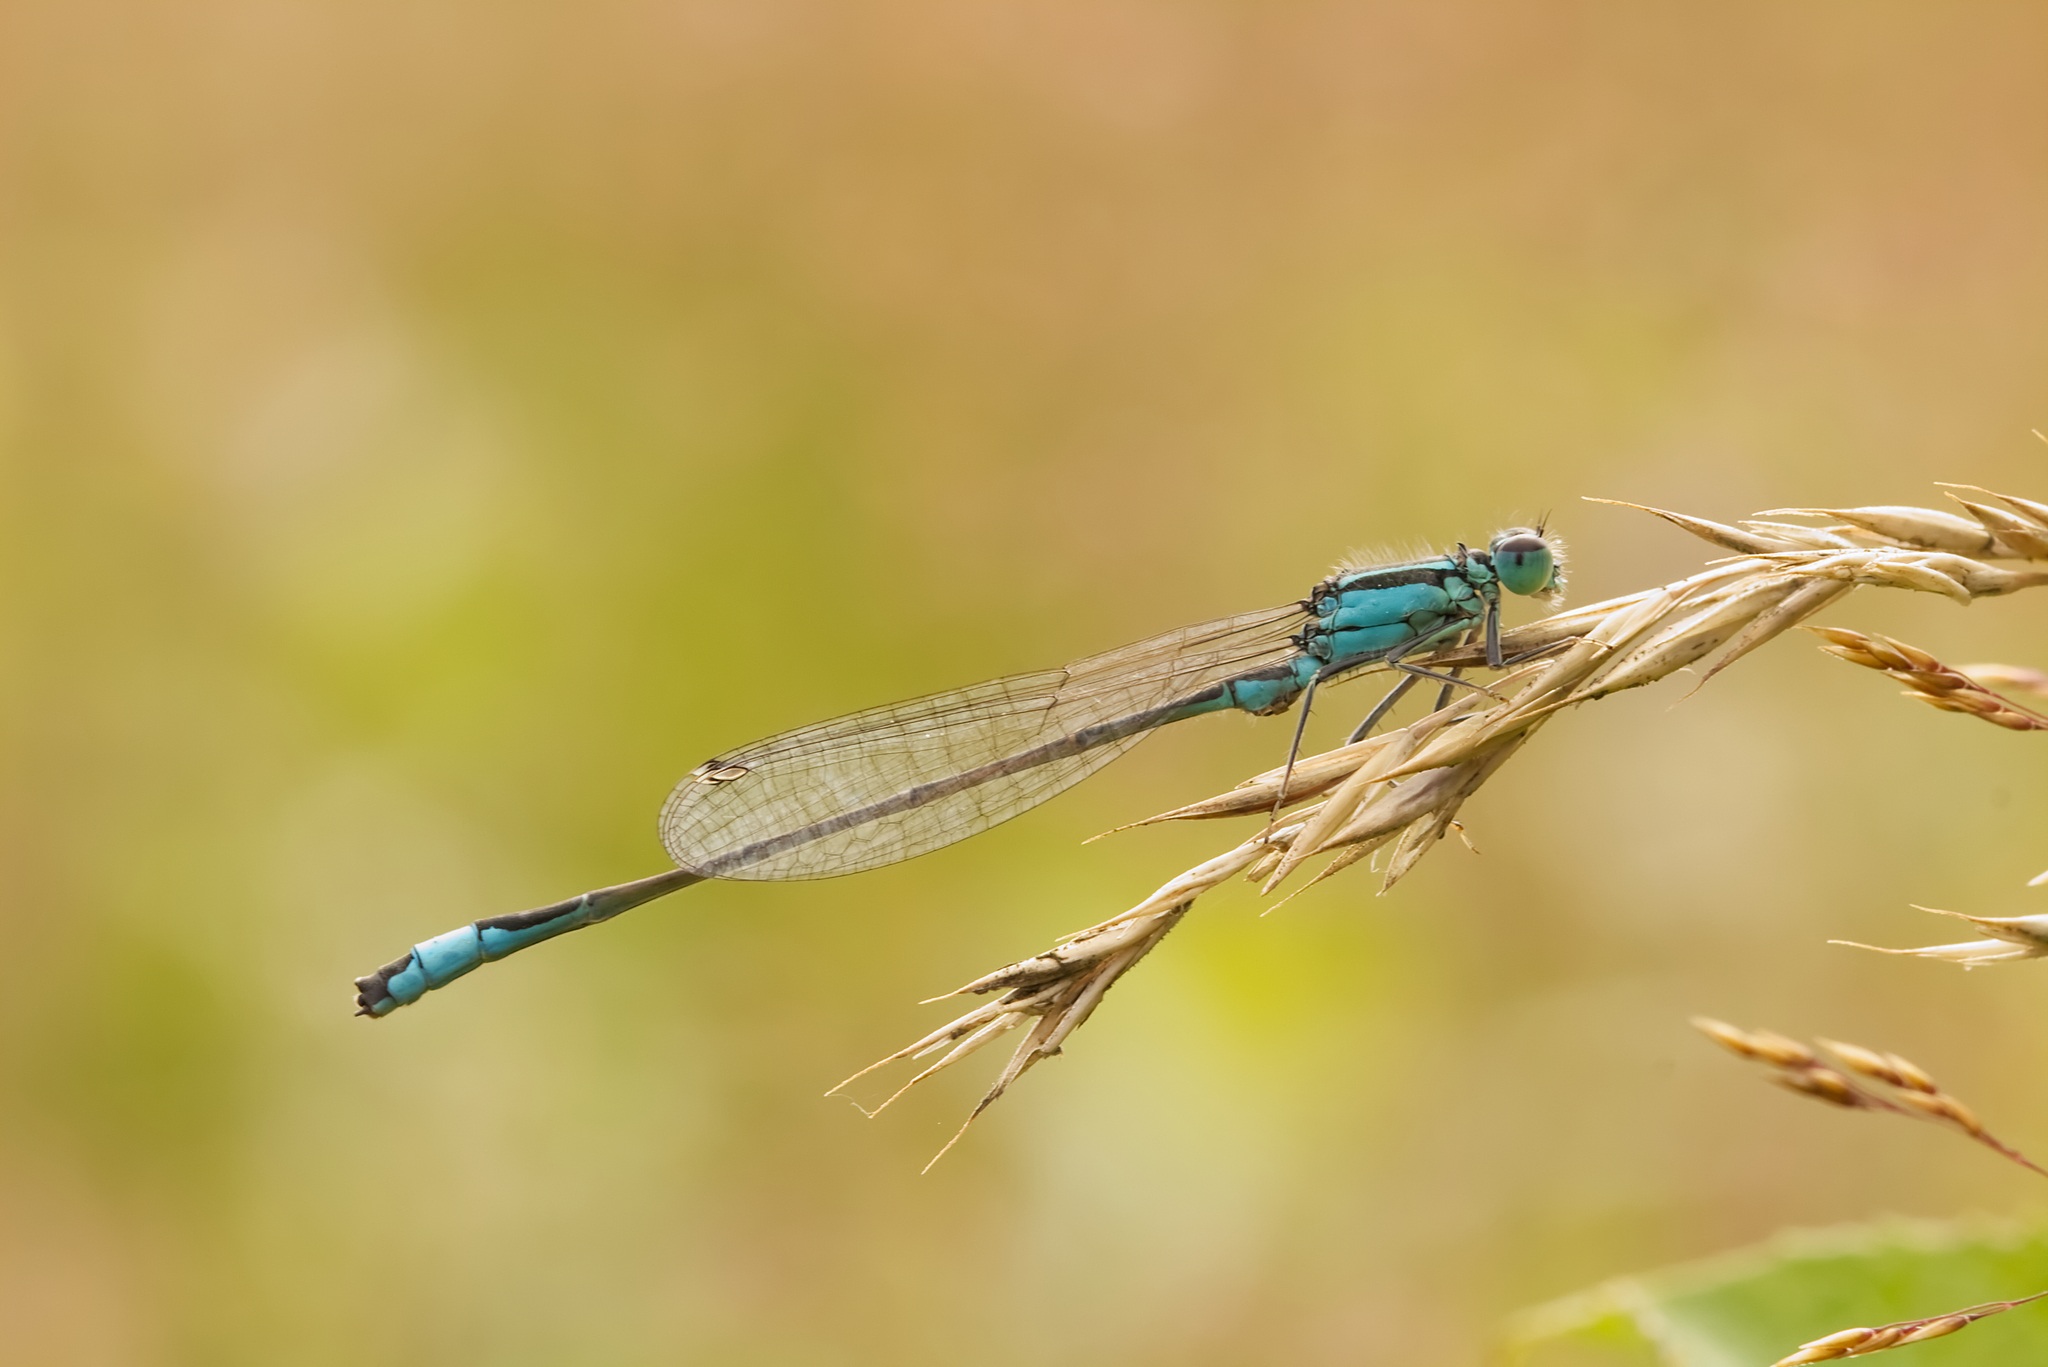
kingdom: Animalia
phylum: Arthropoda
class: Insecta
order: Odonata
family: Coenagrionidae
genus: Ischnura
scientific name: Ischnura elegans
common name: Blue-tailed damselfly
